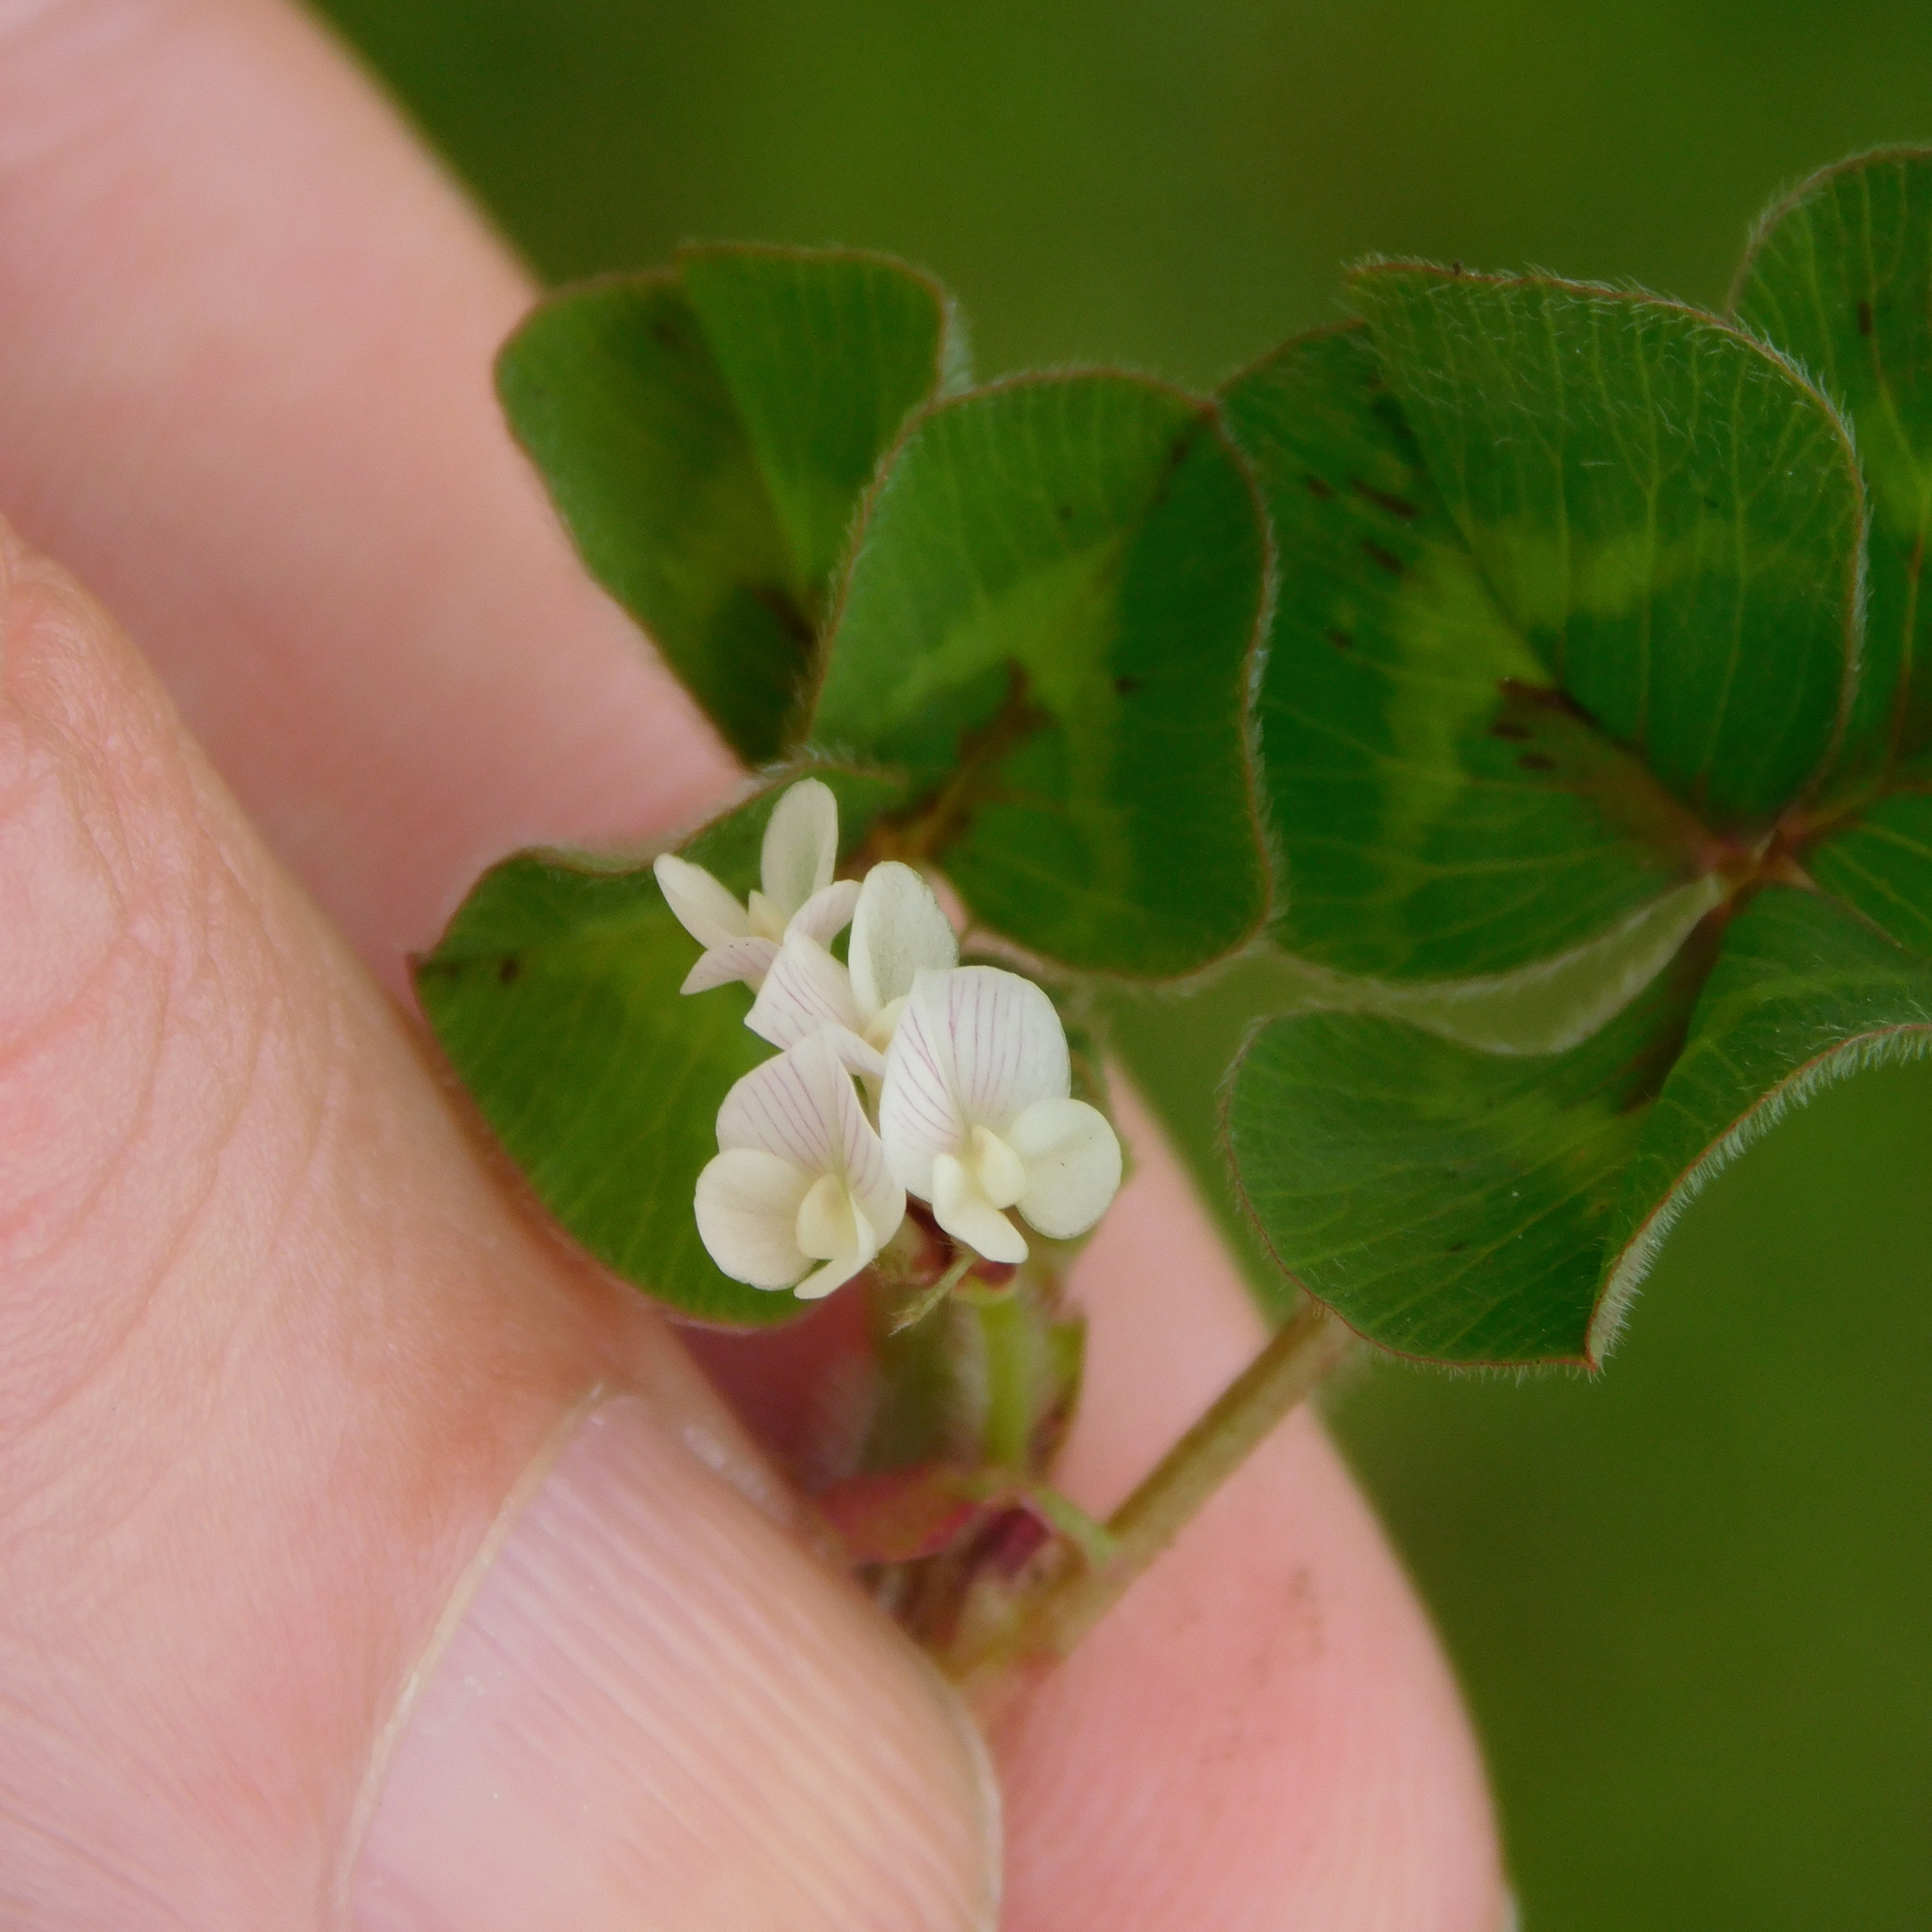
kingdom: Plantae
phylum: Tracheophyta
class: Magnoliopsida
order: Fabales
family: Fabaceae
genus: Trifolium
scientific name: Trifolium subterraneum
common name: Subterranean clover
